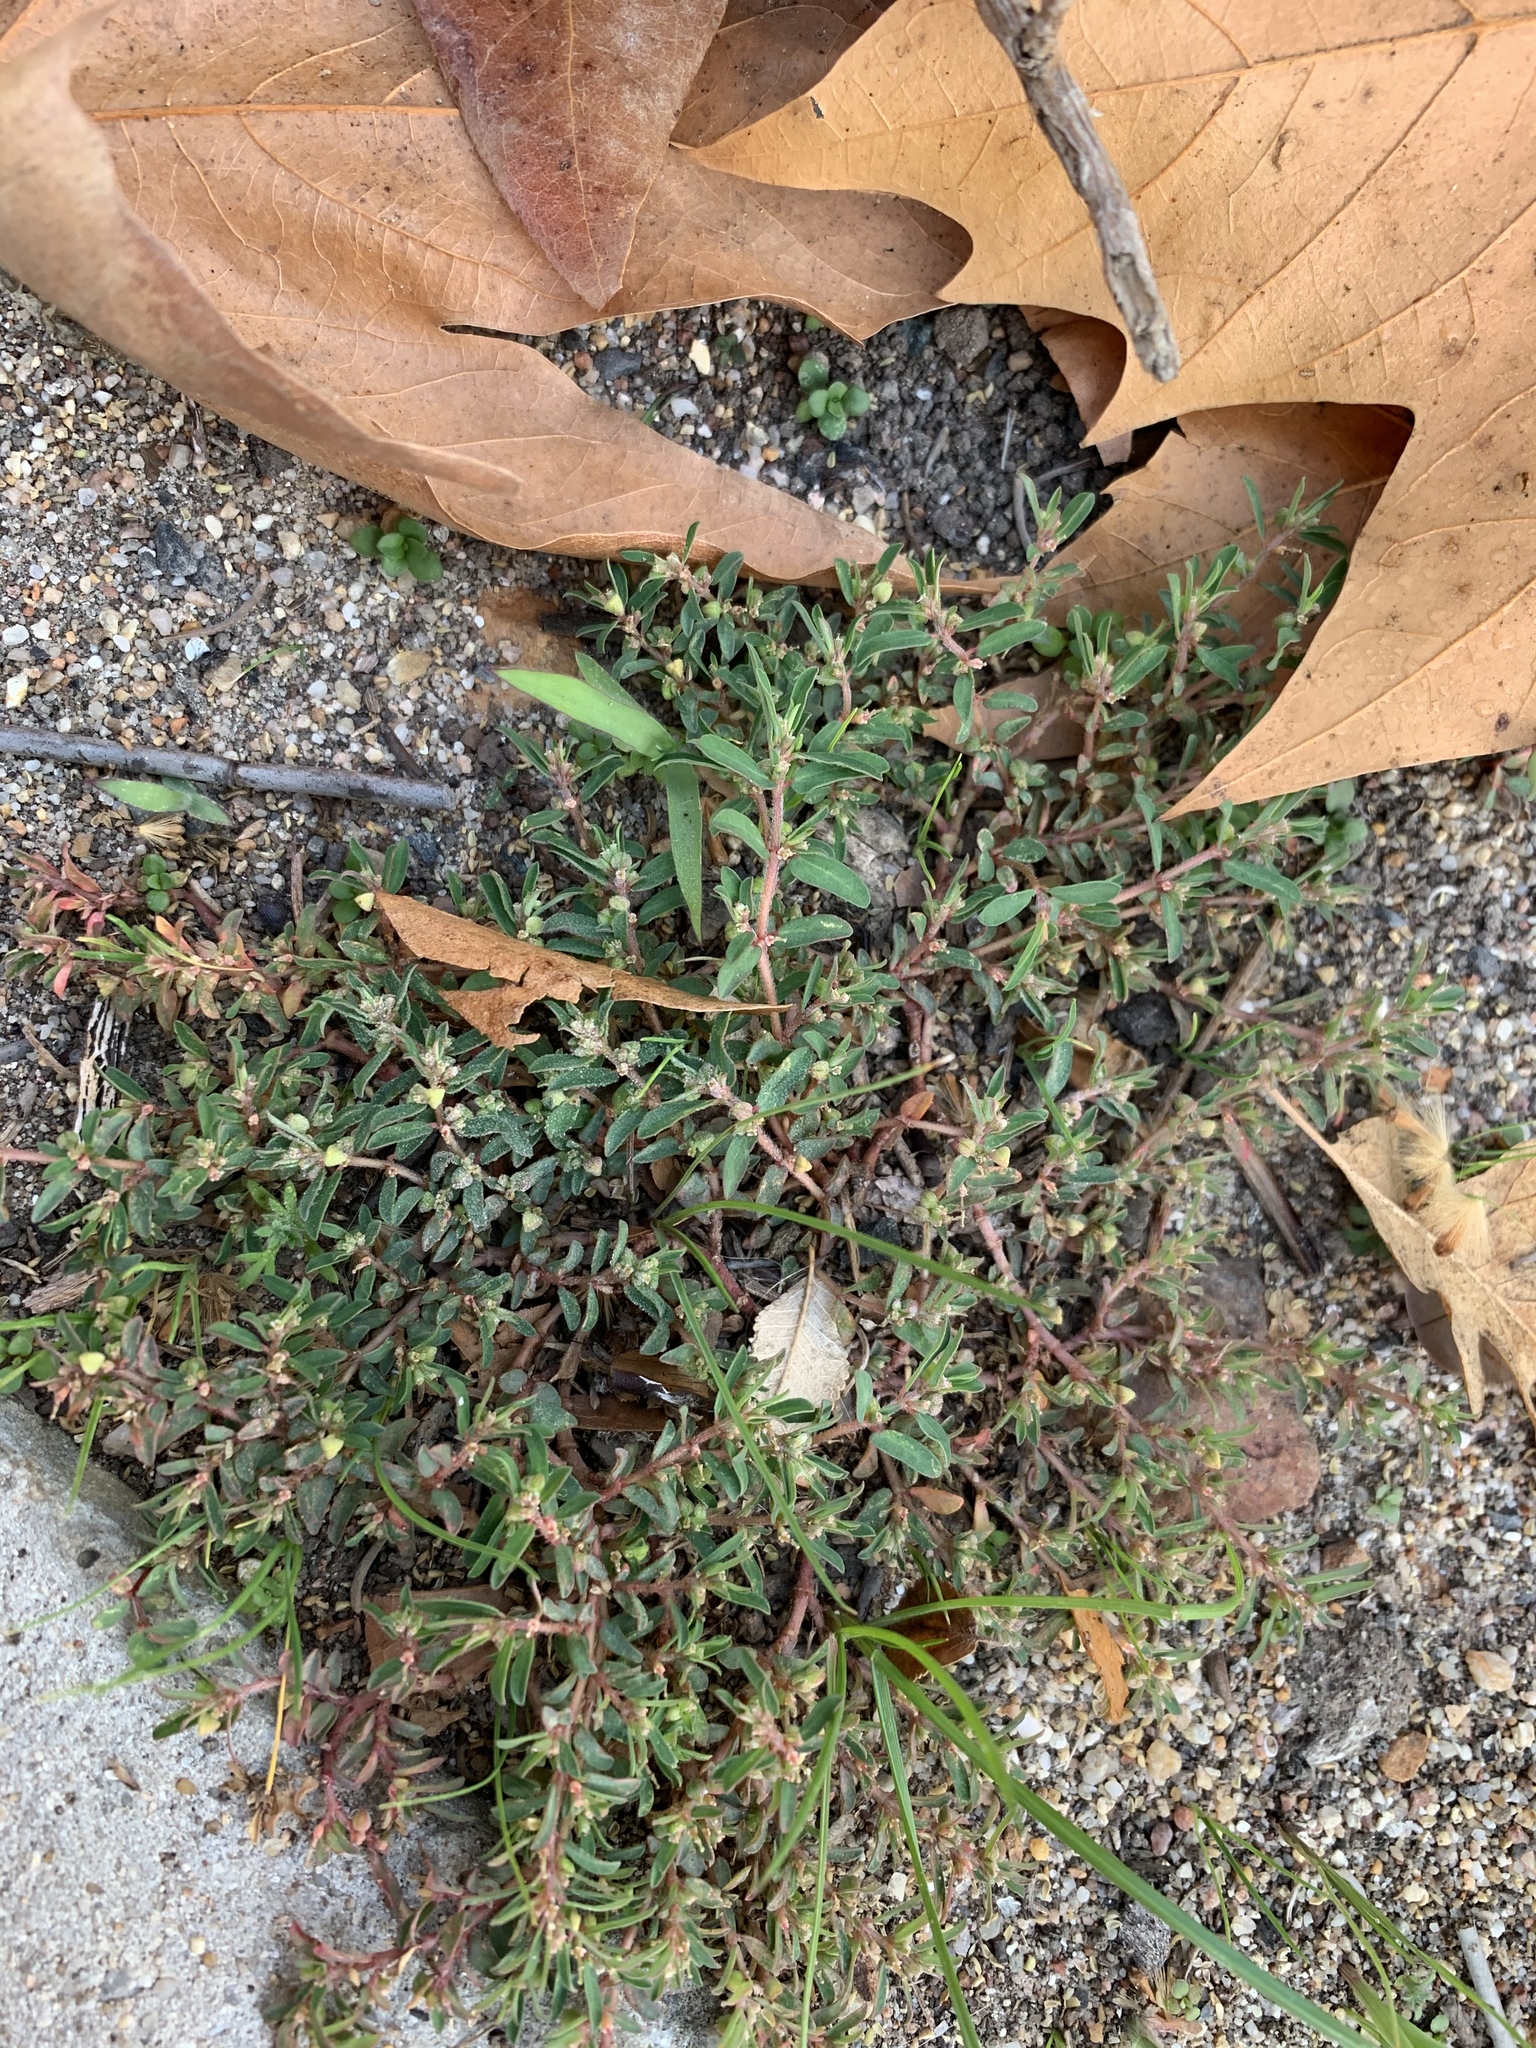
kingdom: Plantae
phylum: Tracheophyta
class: Magnoliopsida
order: Malpighiales
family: Euphorbiaceae
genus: Euphorbia
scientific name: Euphorbia maculata
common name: Spotted spurge
